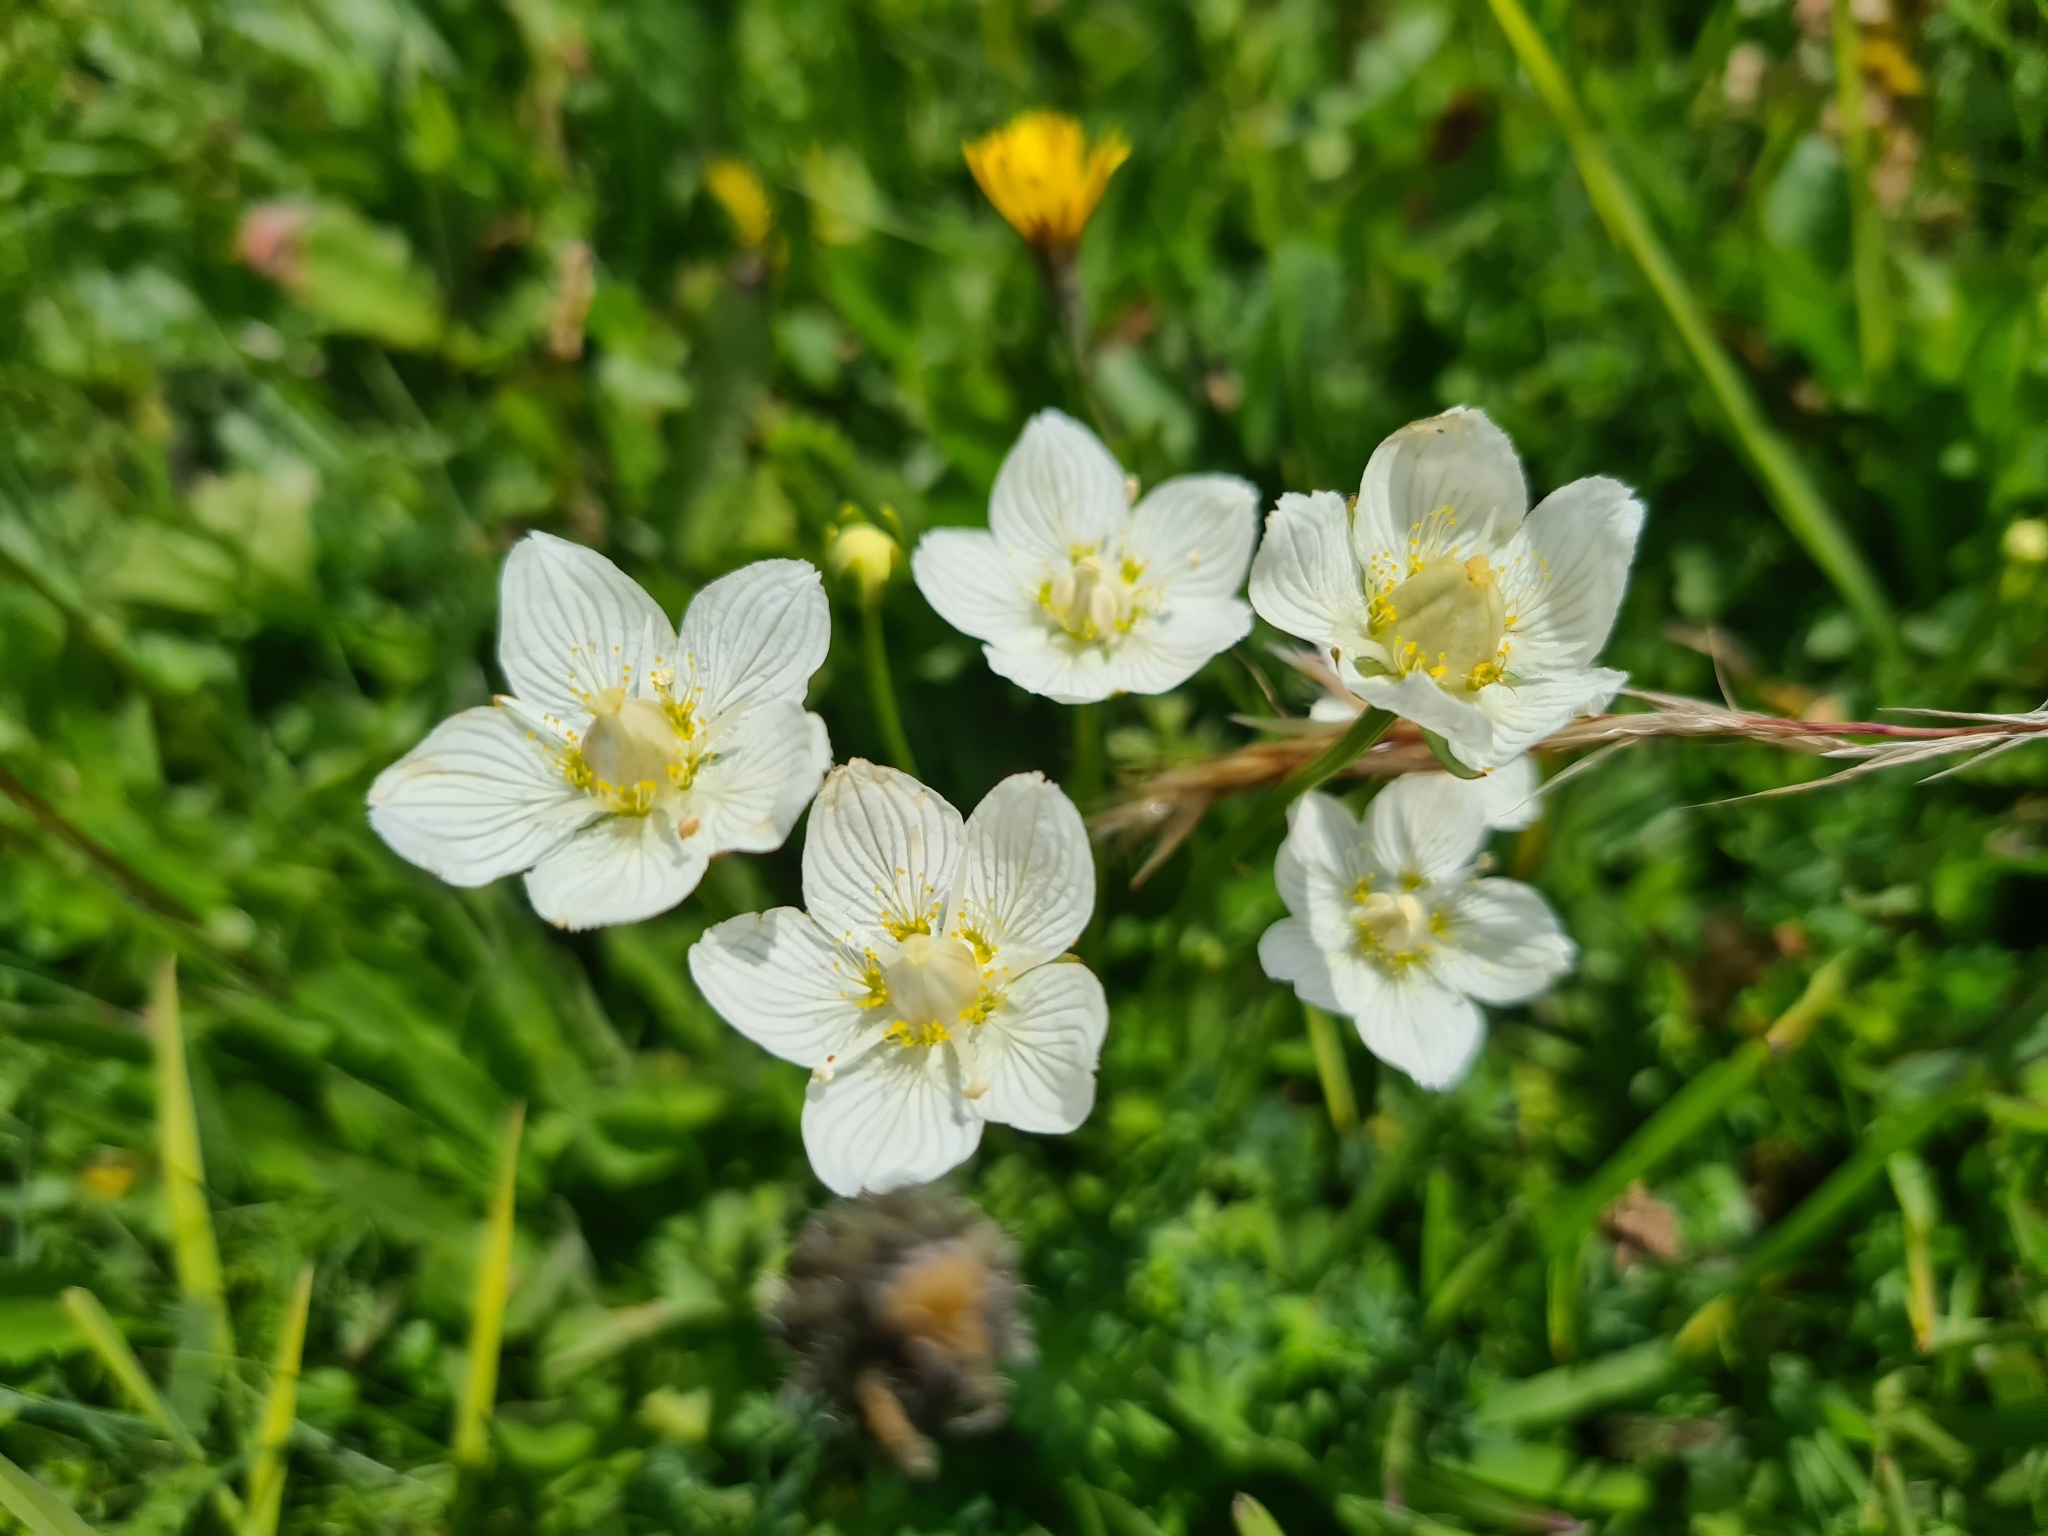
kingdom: Plantae
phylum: Tracheophyta
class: Magnoliopsida
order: Celastrales
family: Parnassiaceae
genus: Parnassia
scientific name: Parnassia palustris
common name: Grass-of-parnassus
